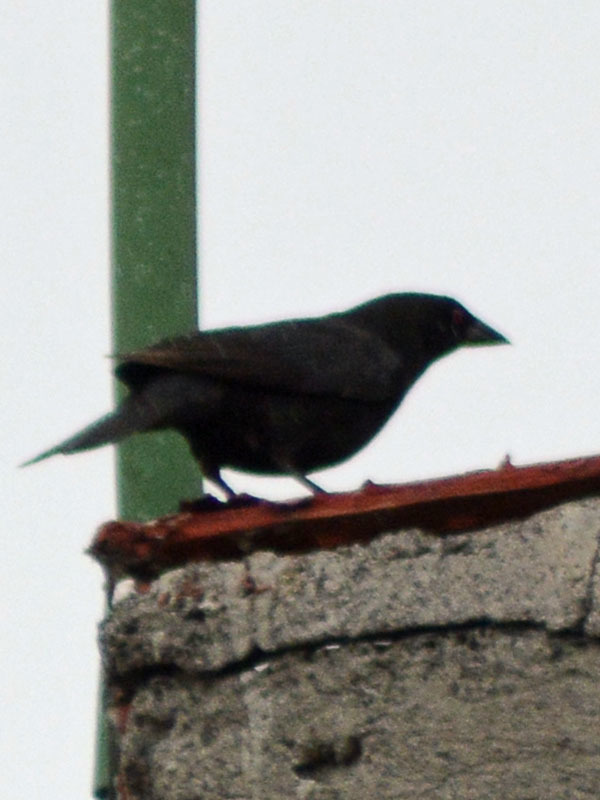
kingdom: Animalia
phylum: Chordata
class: Aves
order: Passeriformes
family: Icteridae
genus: Molothrus
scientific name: Molothrus aeneus
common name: Bronzed cowbird
